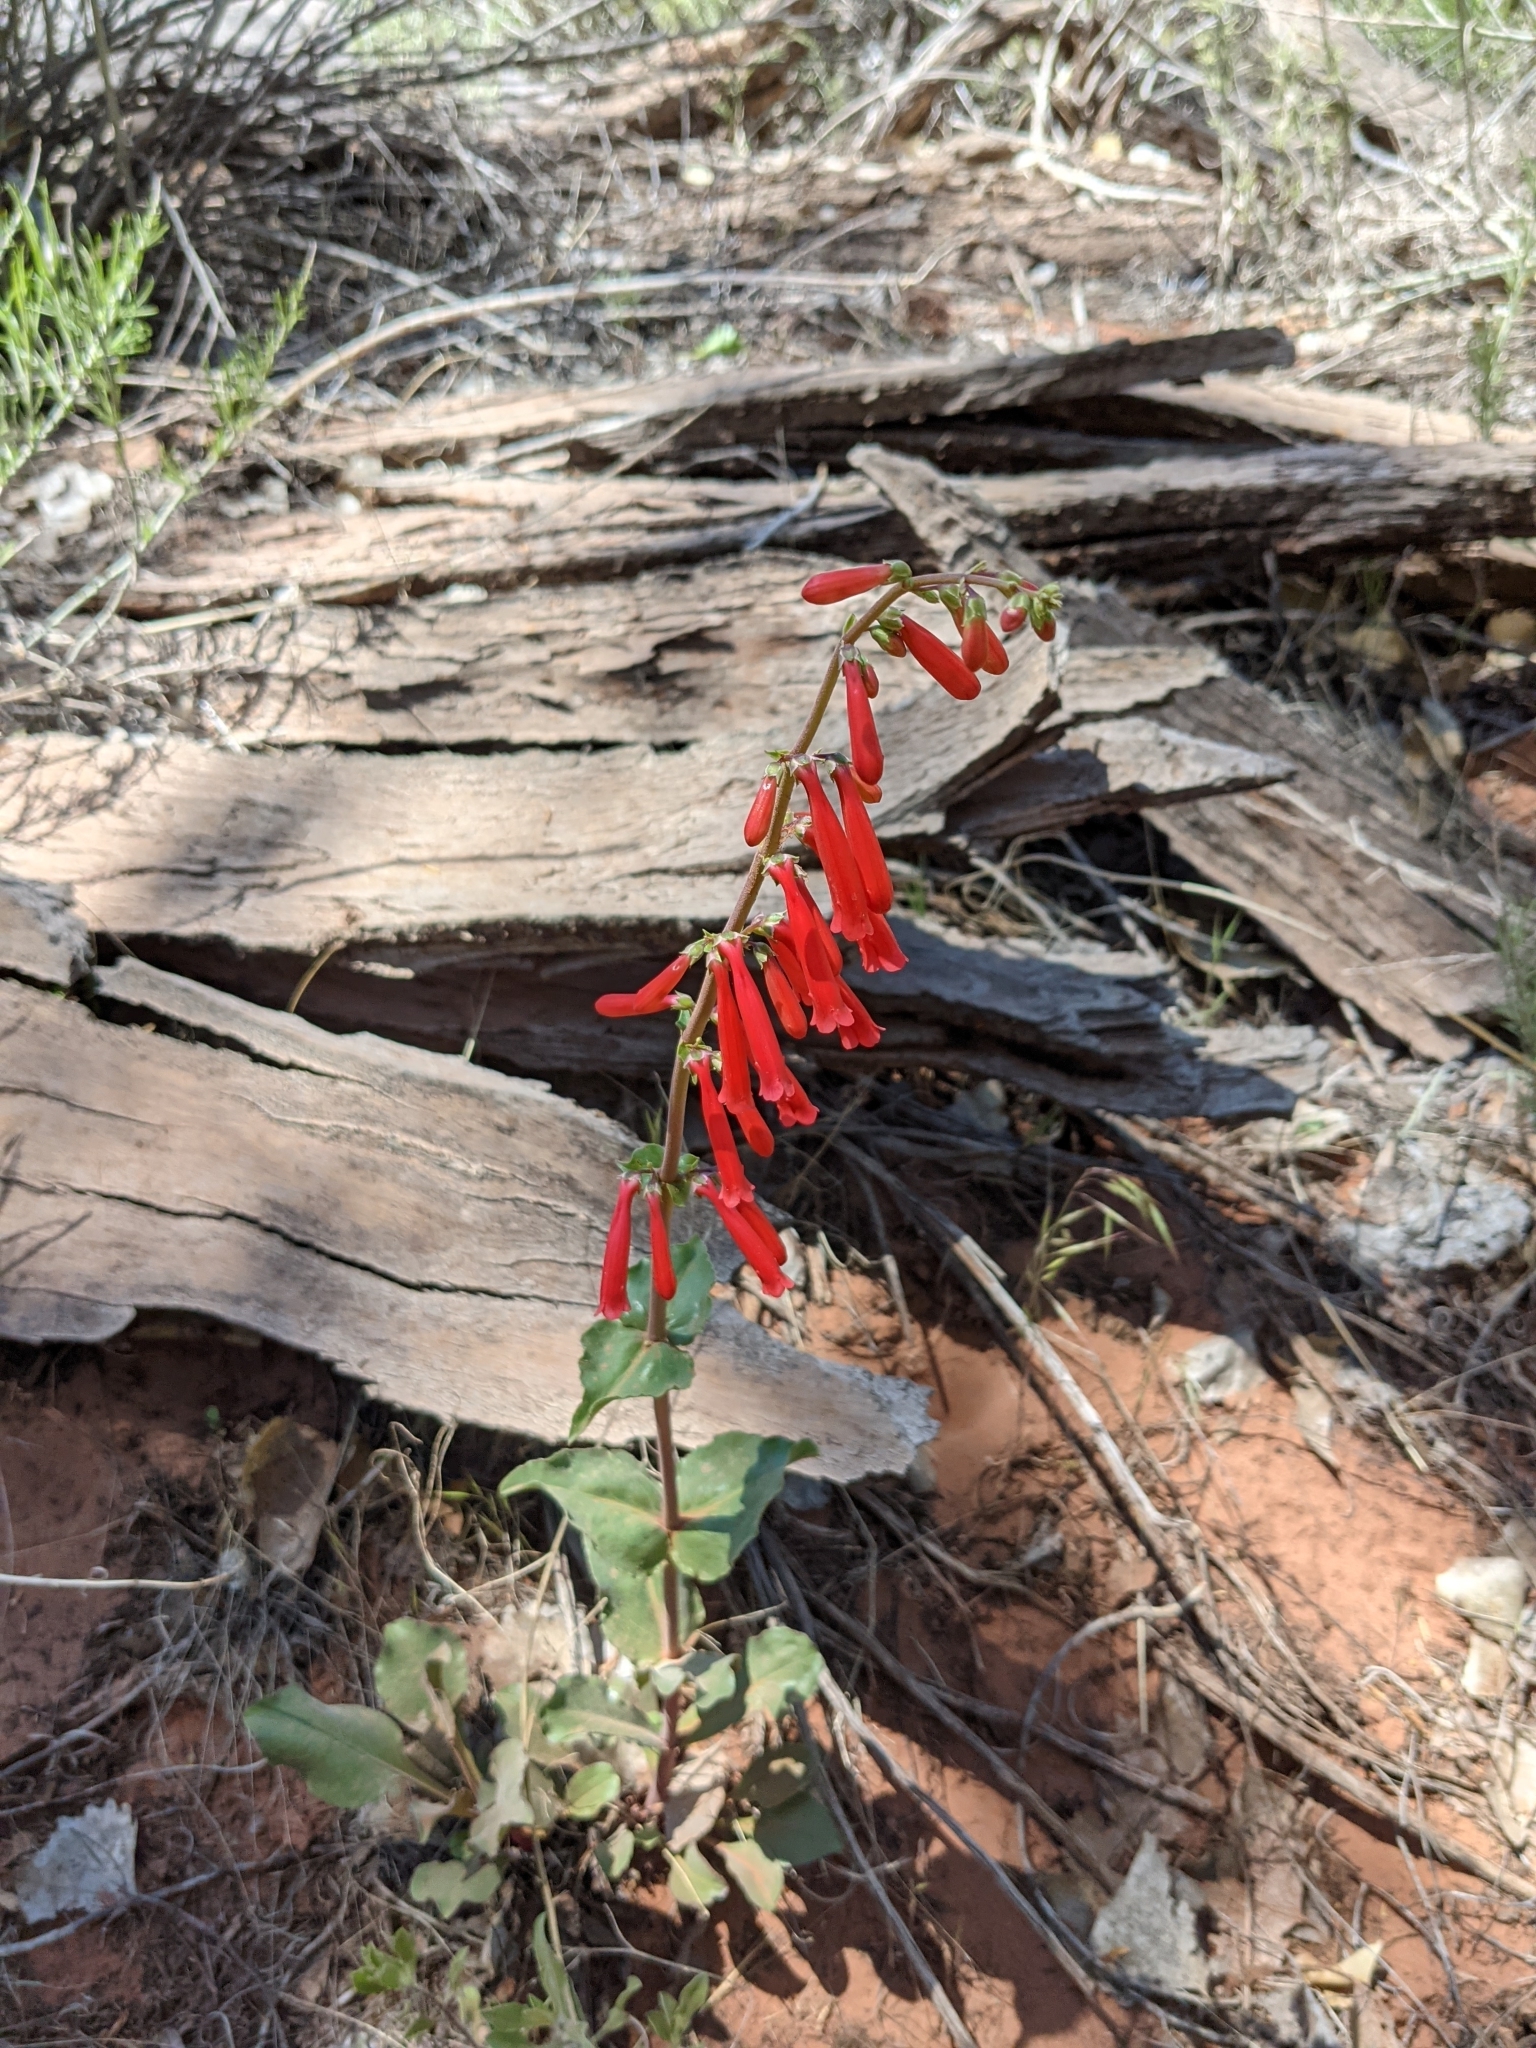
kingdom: Plantae
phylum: Tracheophyta
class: Magnoliopsida
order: Lamiales
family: Plantaginaceae
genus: Penstemon
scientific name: Penstemon eatonii
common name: Eaton's penstemon
